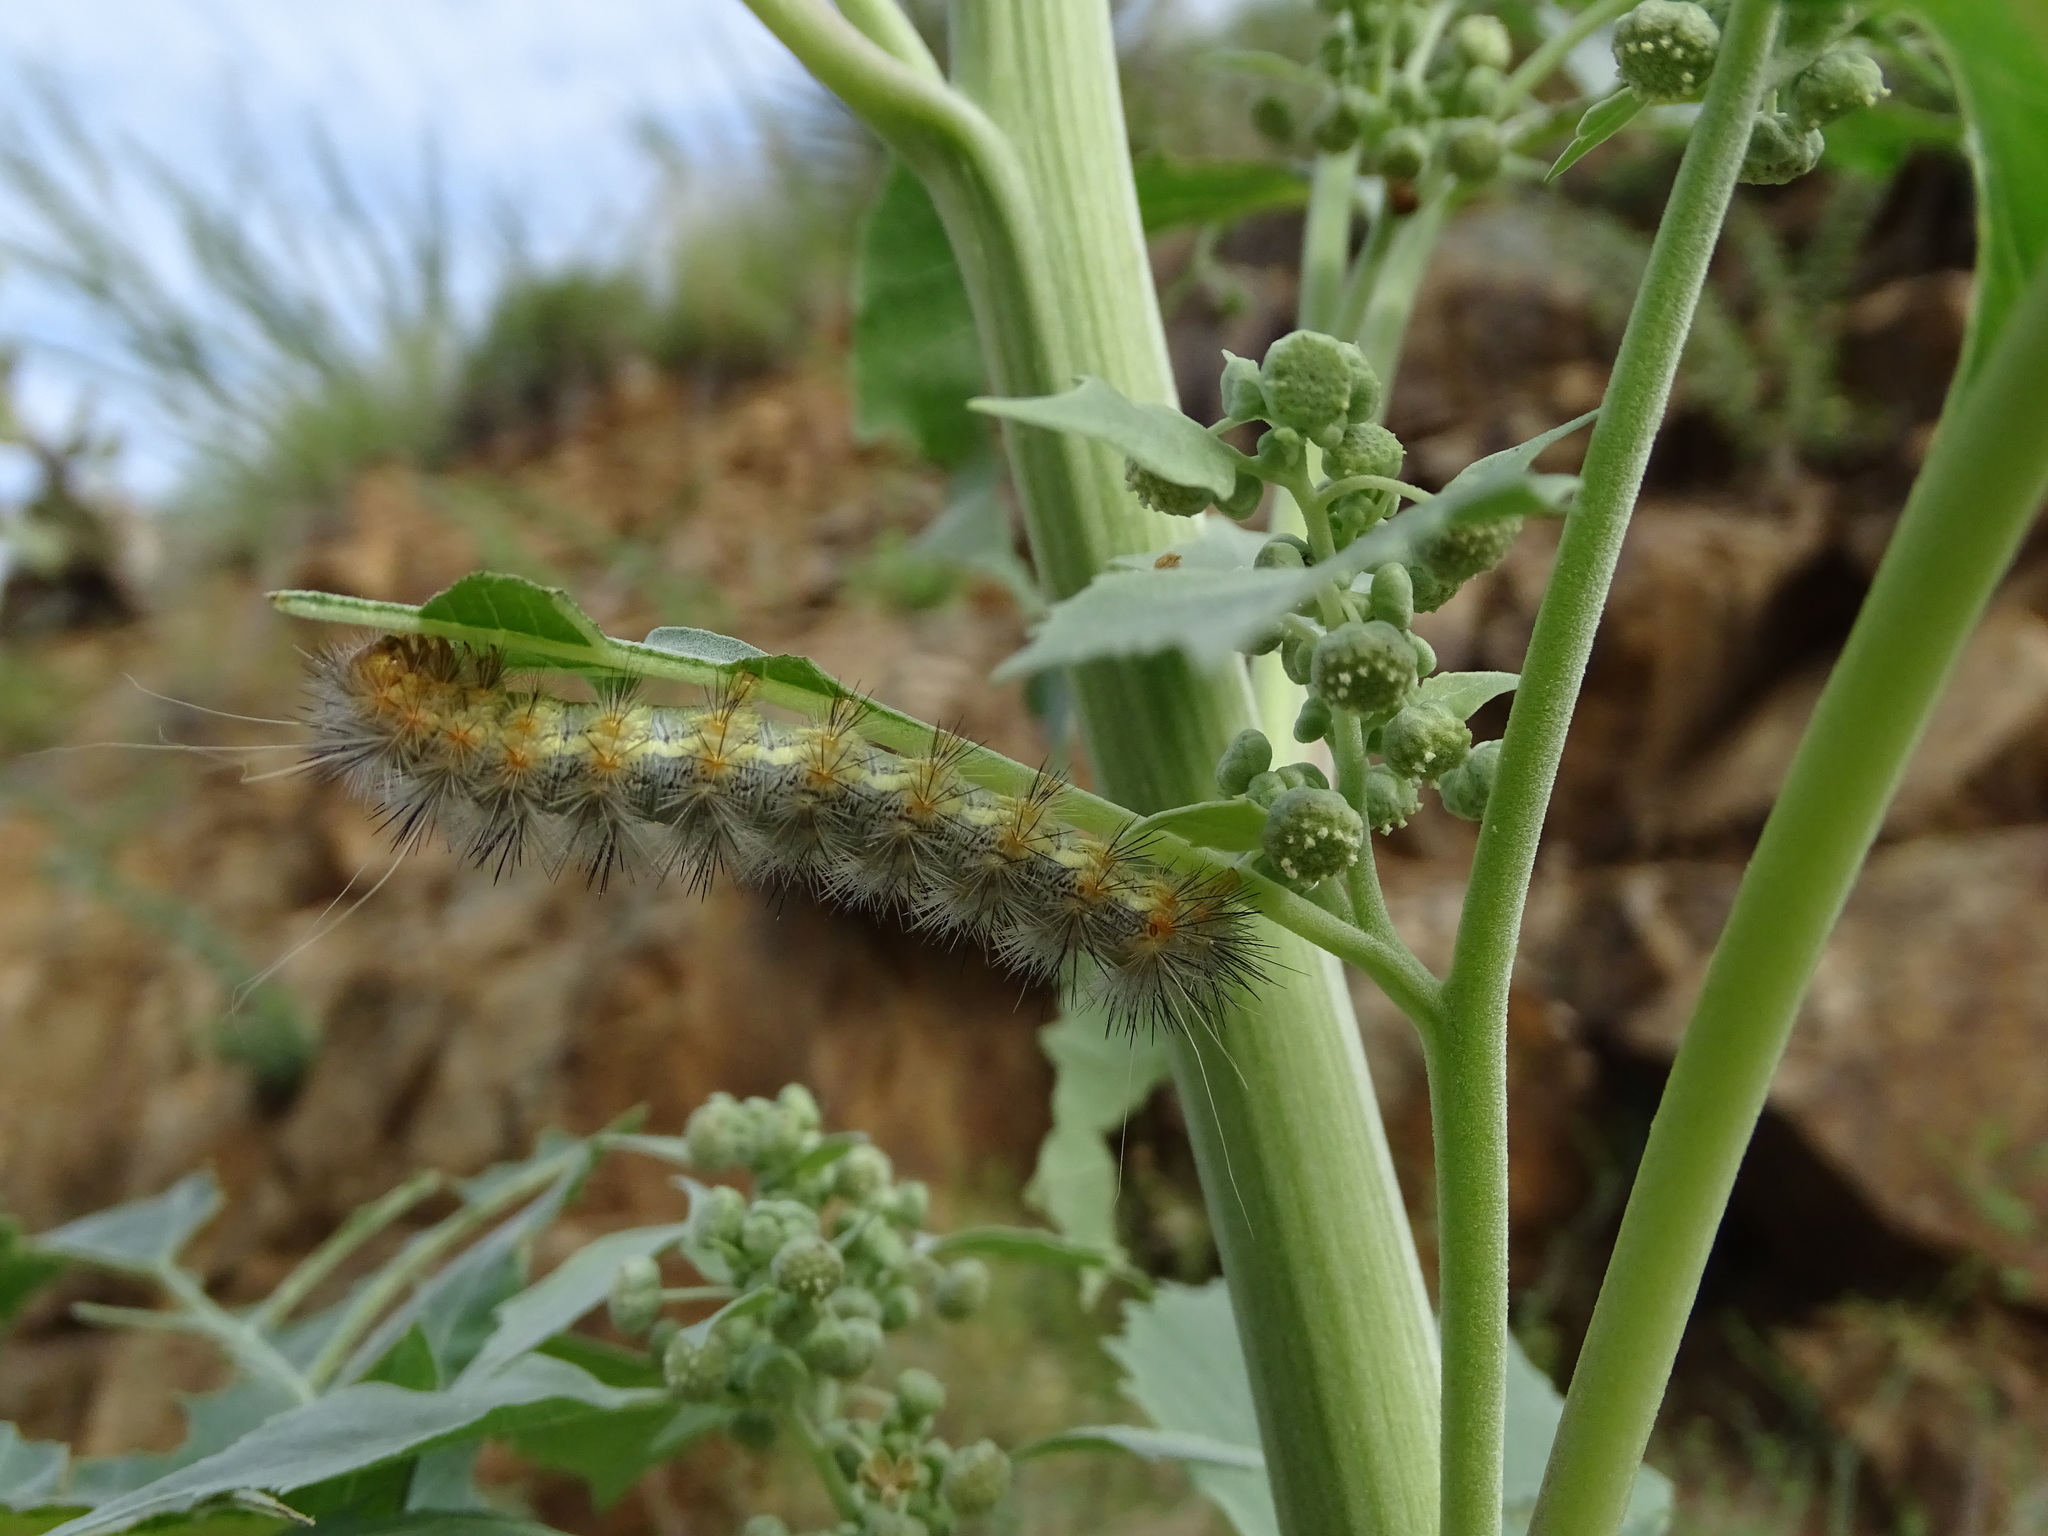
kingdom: Animalia
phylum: Arthropoda
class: Insecta
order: Lepidoptera
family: Erebidae
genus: Hypercompe
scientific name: Hypercompe suffusa
